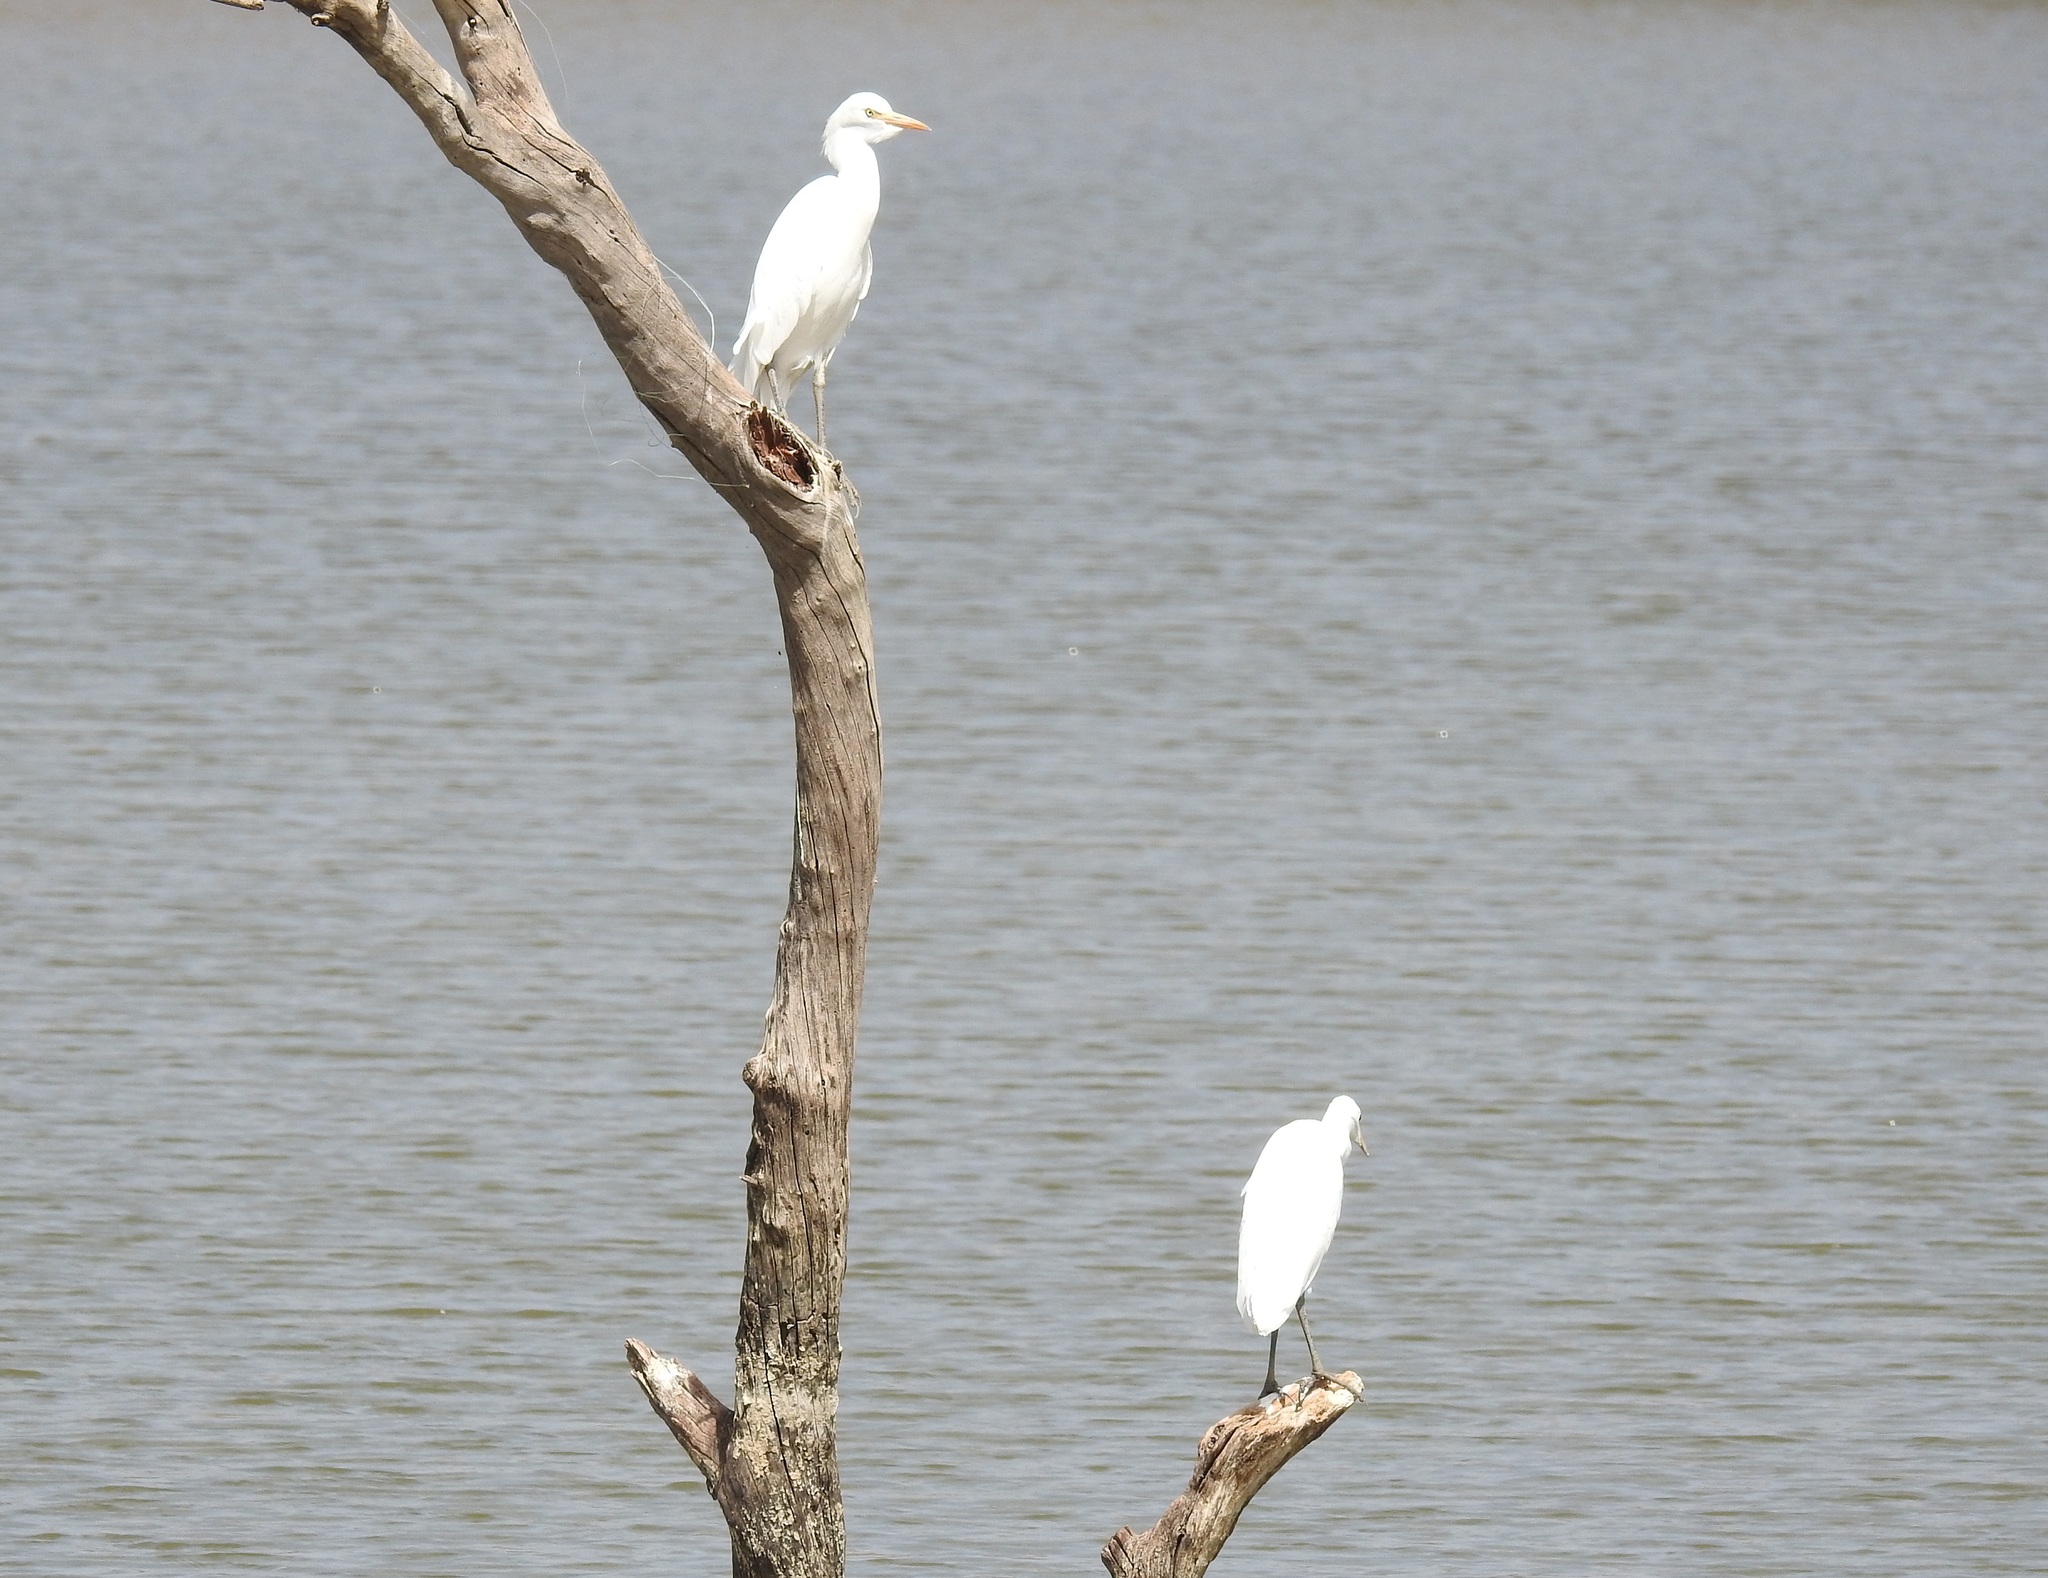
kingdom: Animalia
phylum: Chordata
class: Aves
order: Pelecaniformes
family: Ardeidae
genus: Bubulcus
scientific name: Bubulcus ibis
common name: Cattle egret
